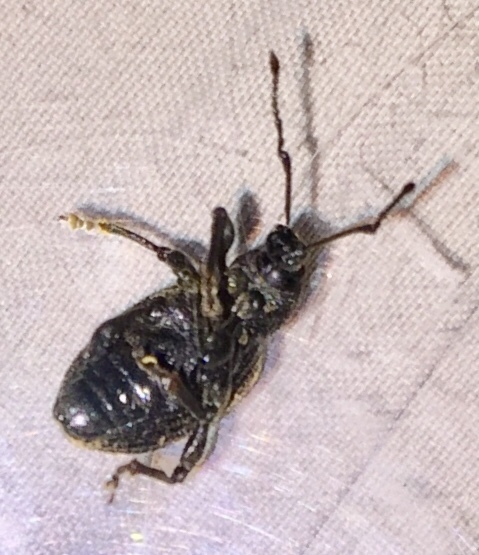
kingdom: Animalia
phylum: Arthropoda
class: Insecta
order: Coleoptera
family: Curculionidae
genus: Otiorhynchus
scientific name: Otiorhynchus sulcatus
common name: Black vine weevil
